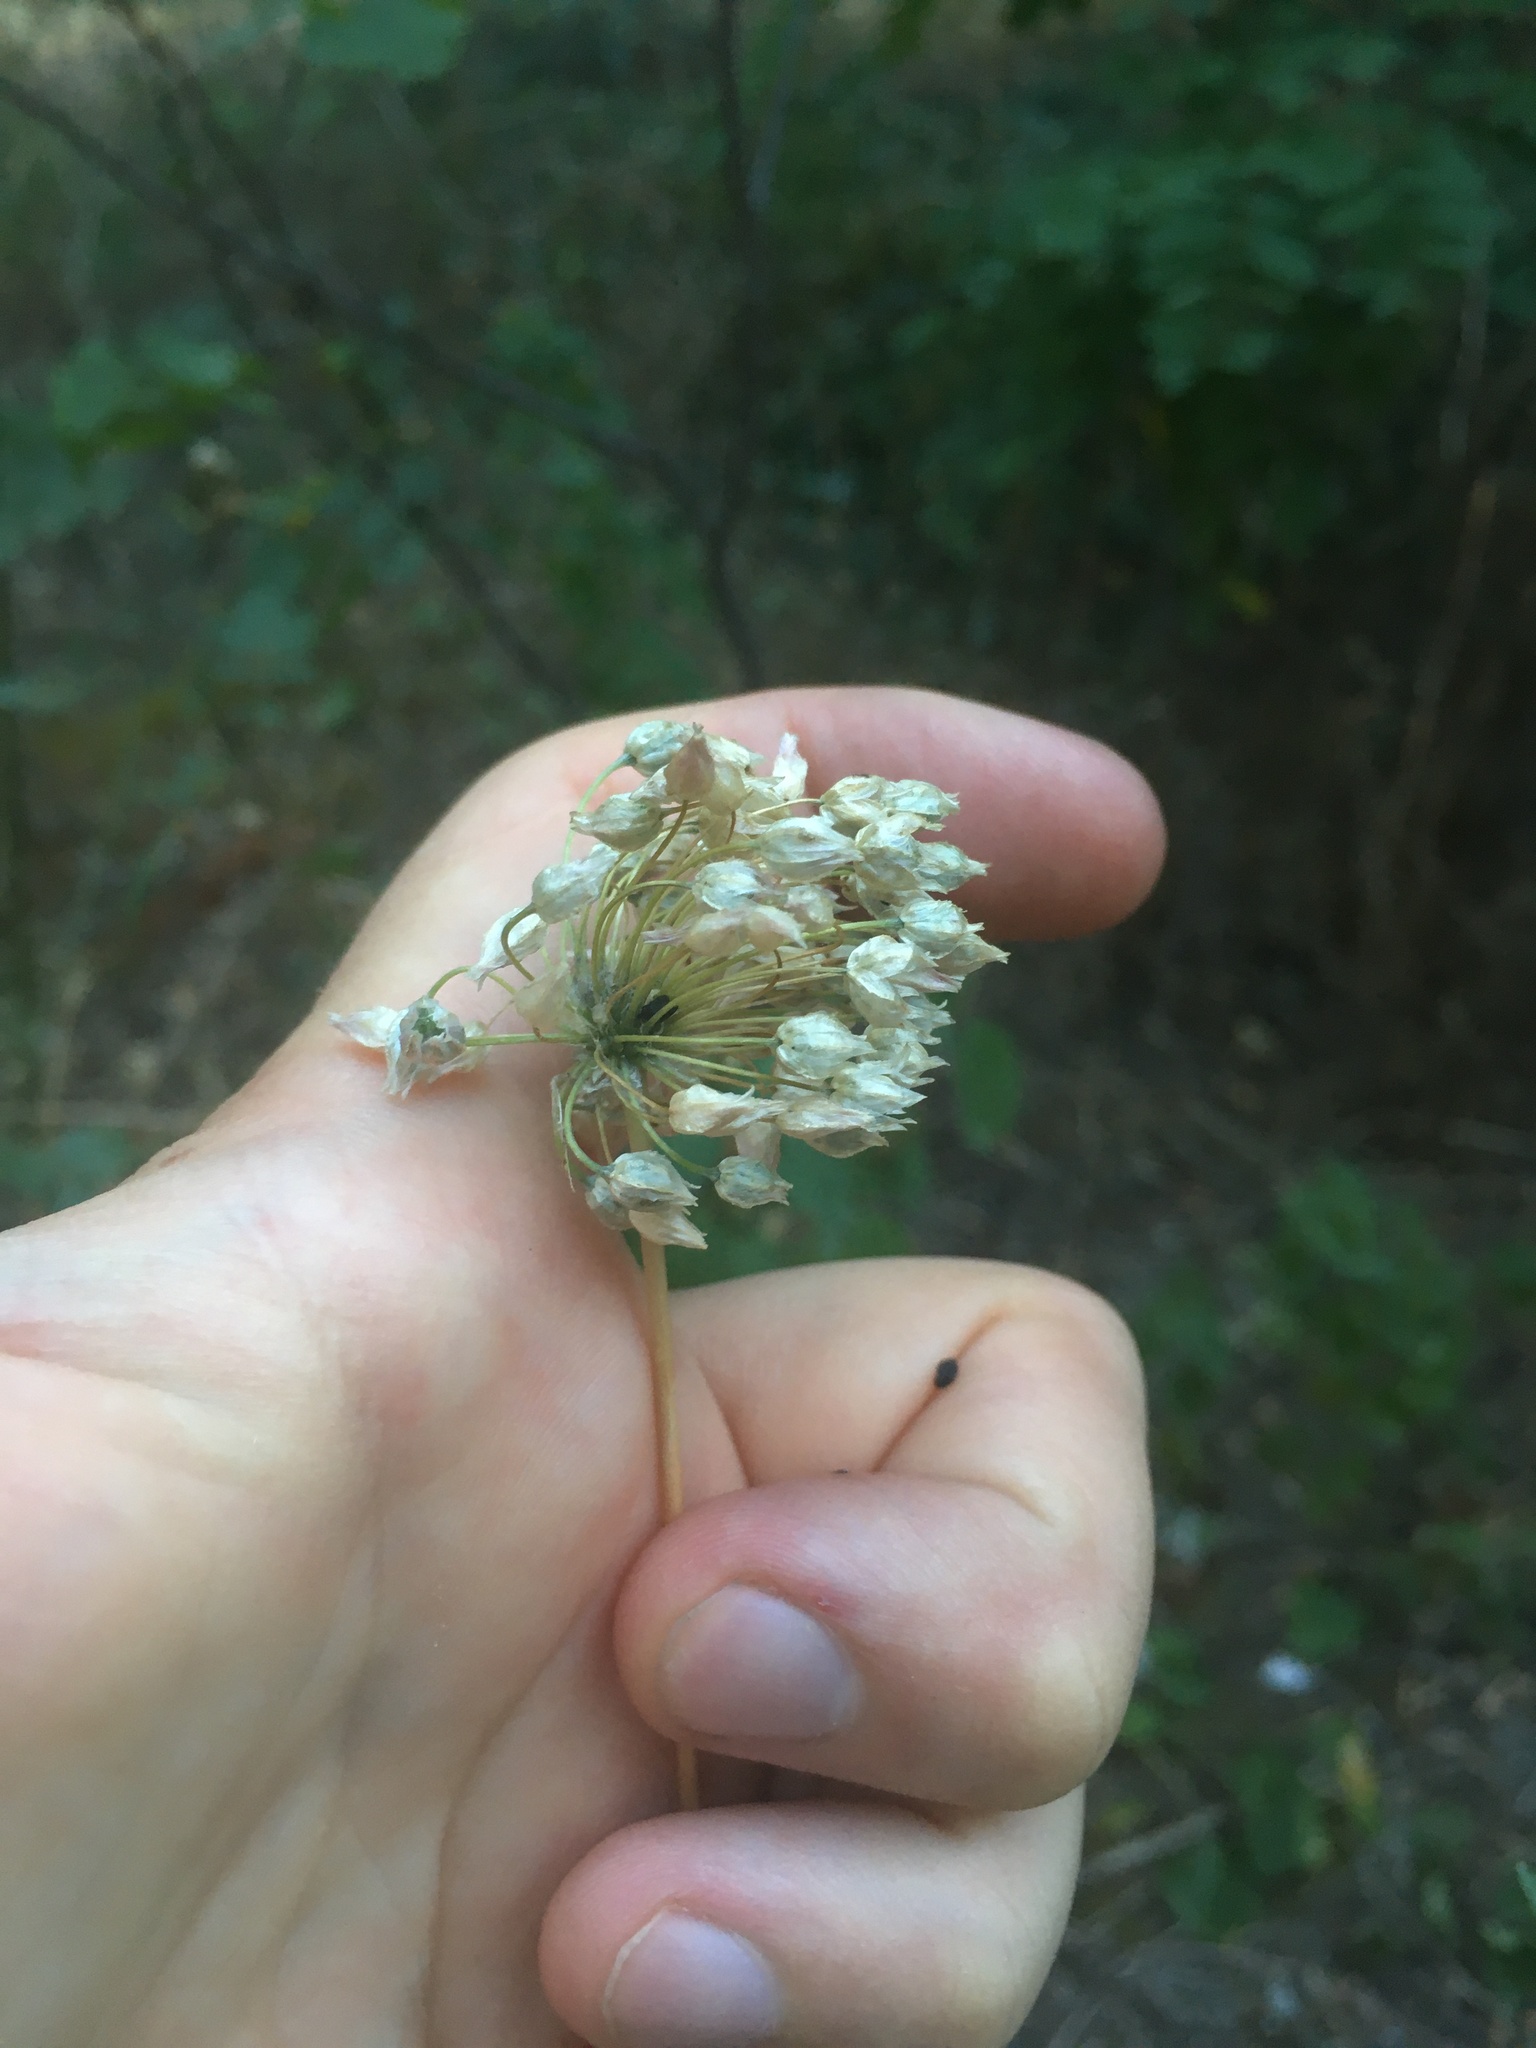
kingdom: Plantae
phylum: Tracheophyta
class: Liliopsida
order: Asparagales
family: Amaryllidaceae
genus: Allium
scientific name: Allium rotundum
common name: Sand leek
